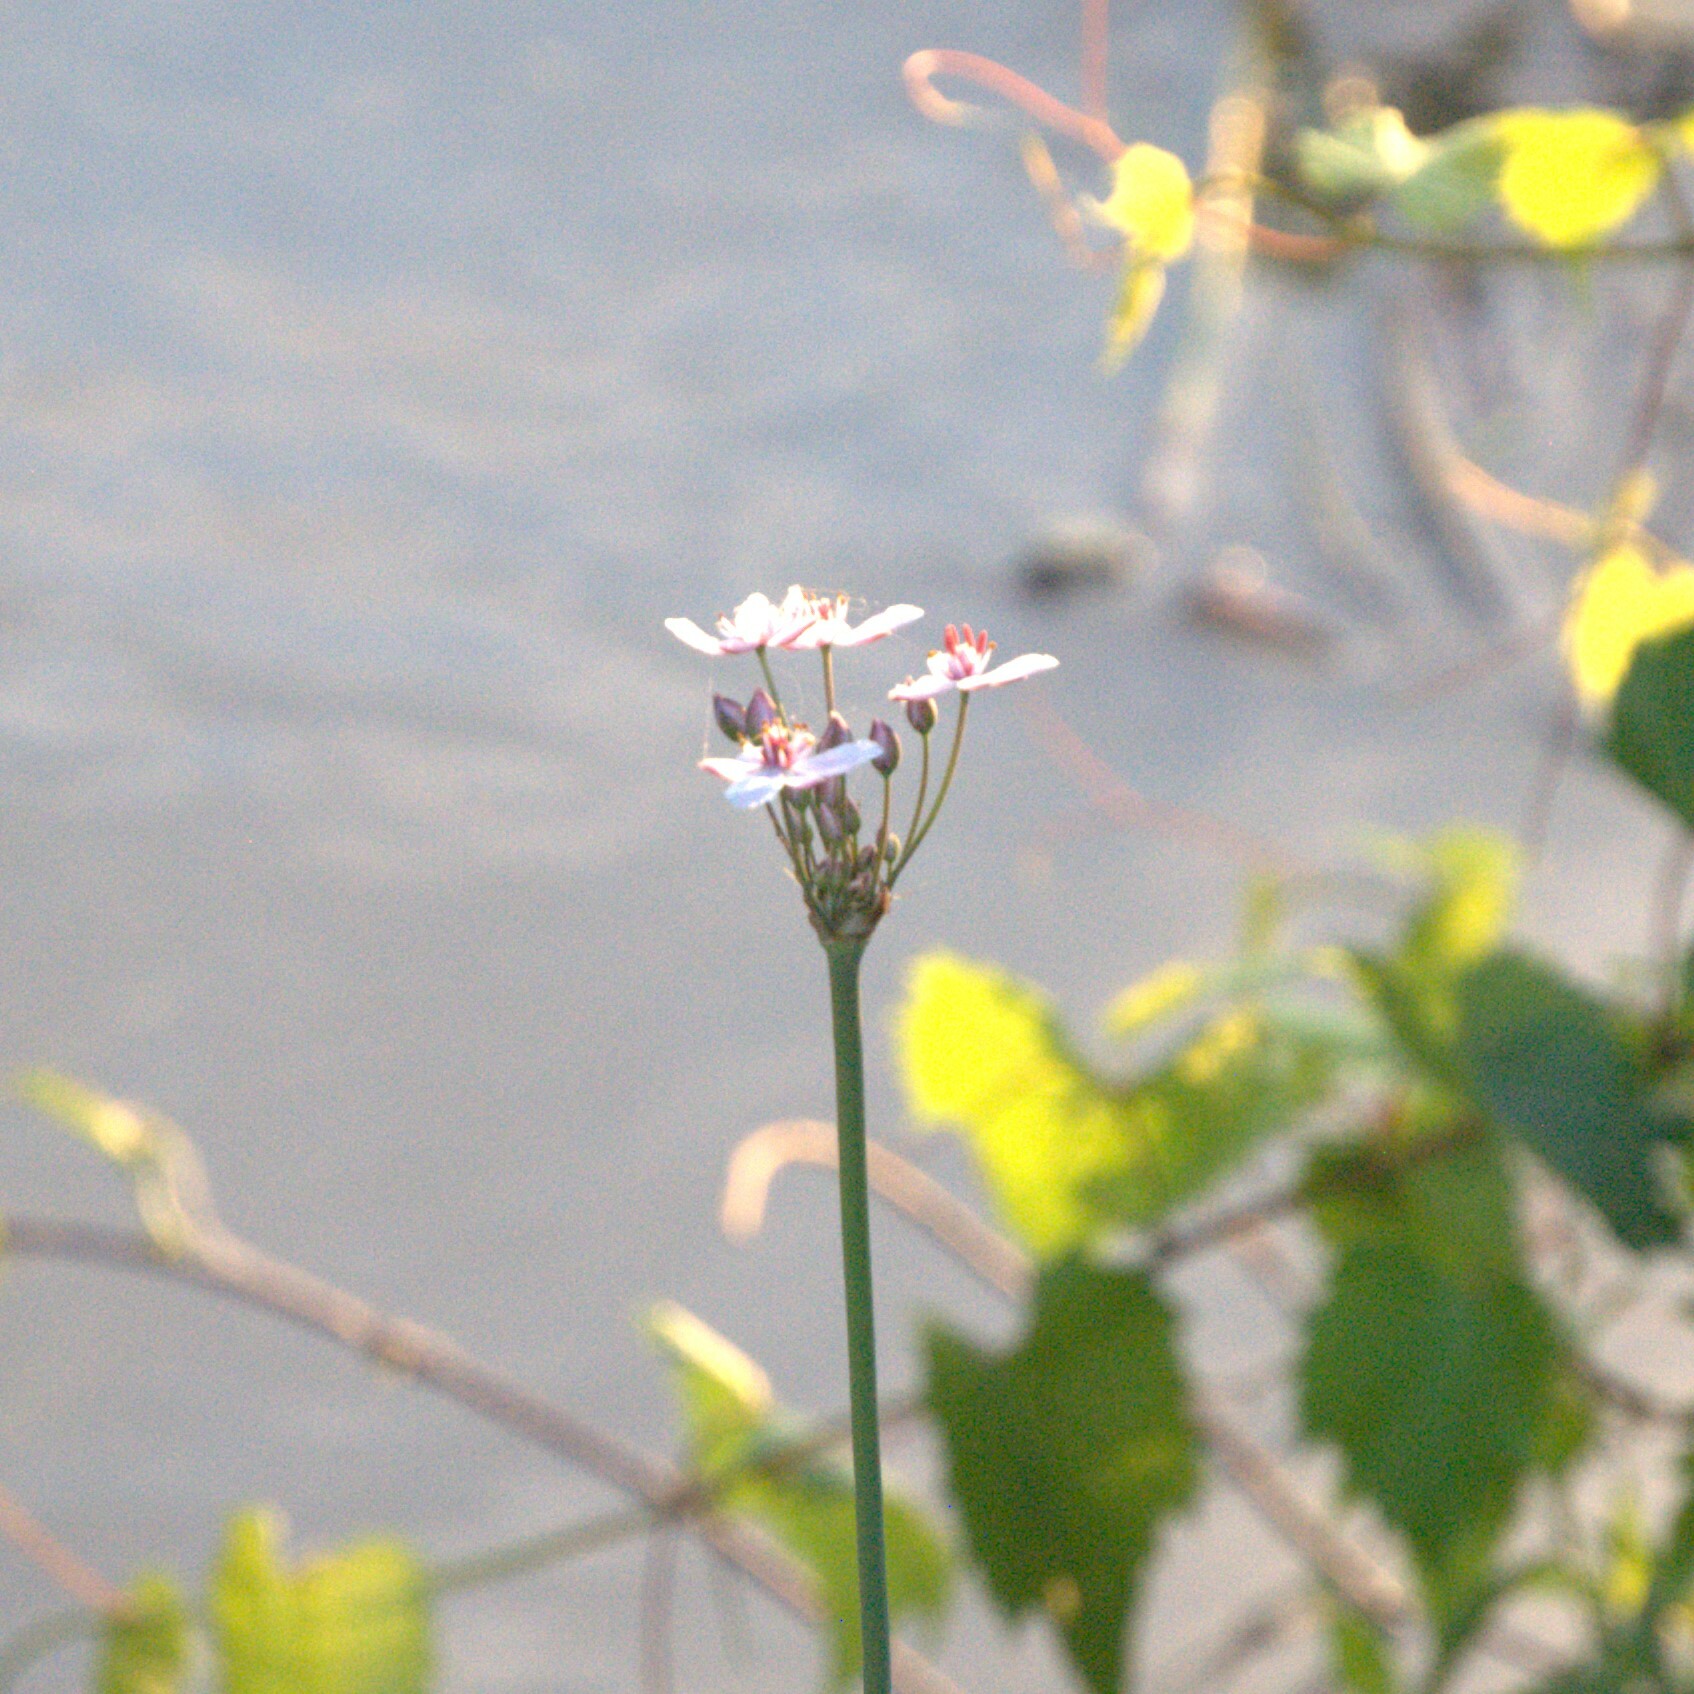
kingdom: Plantae
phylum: Tracheophyta
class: Liliopsida
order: Alismatales
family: Butomaceae
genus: Butomus
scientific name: Butomus umbellatus
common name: Flowering-rush
